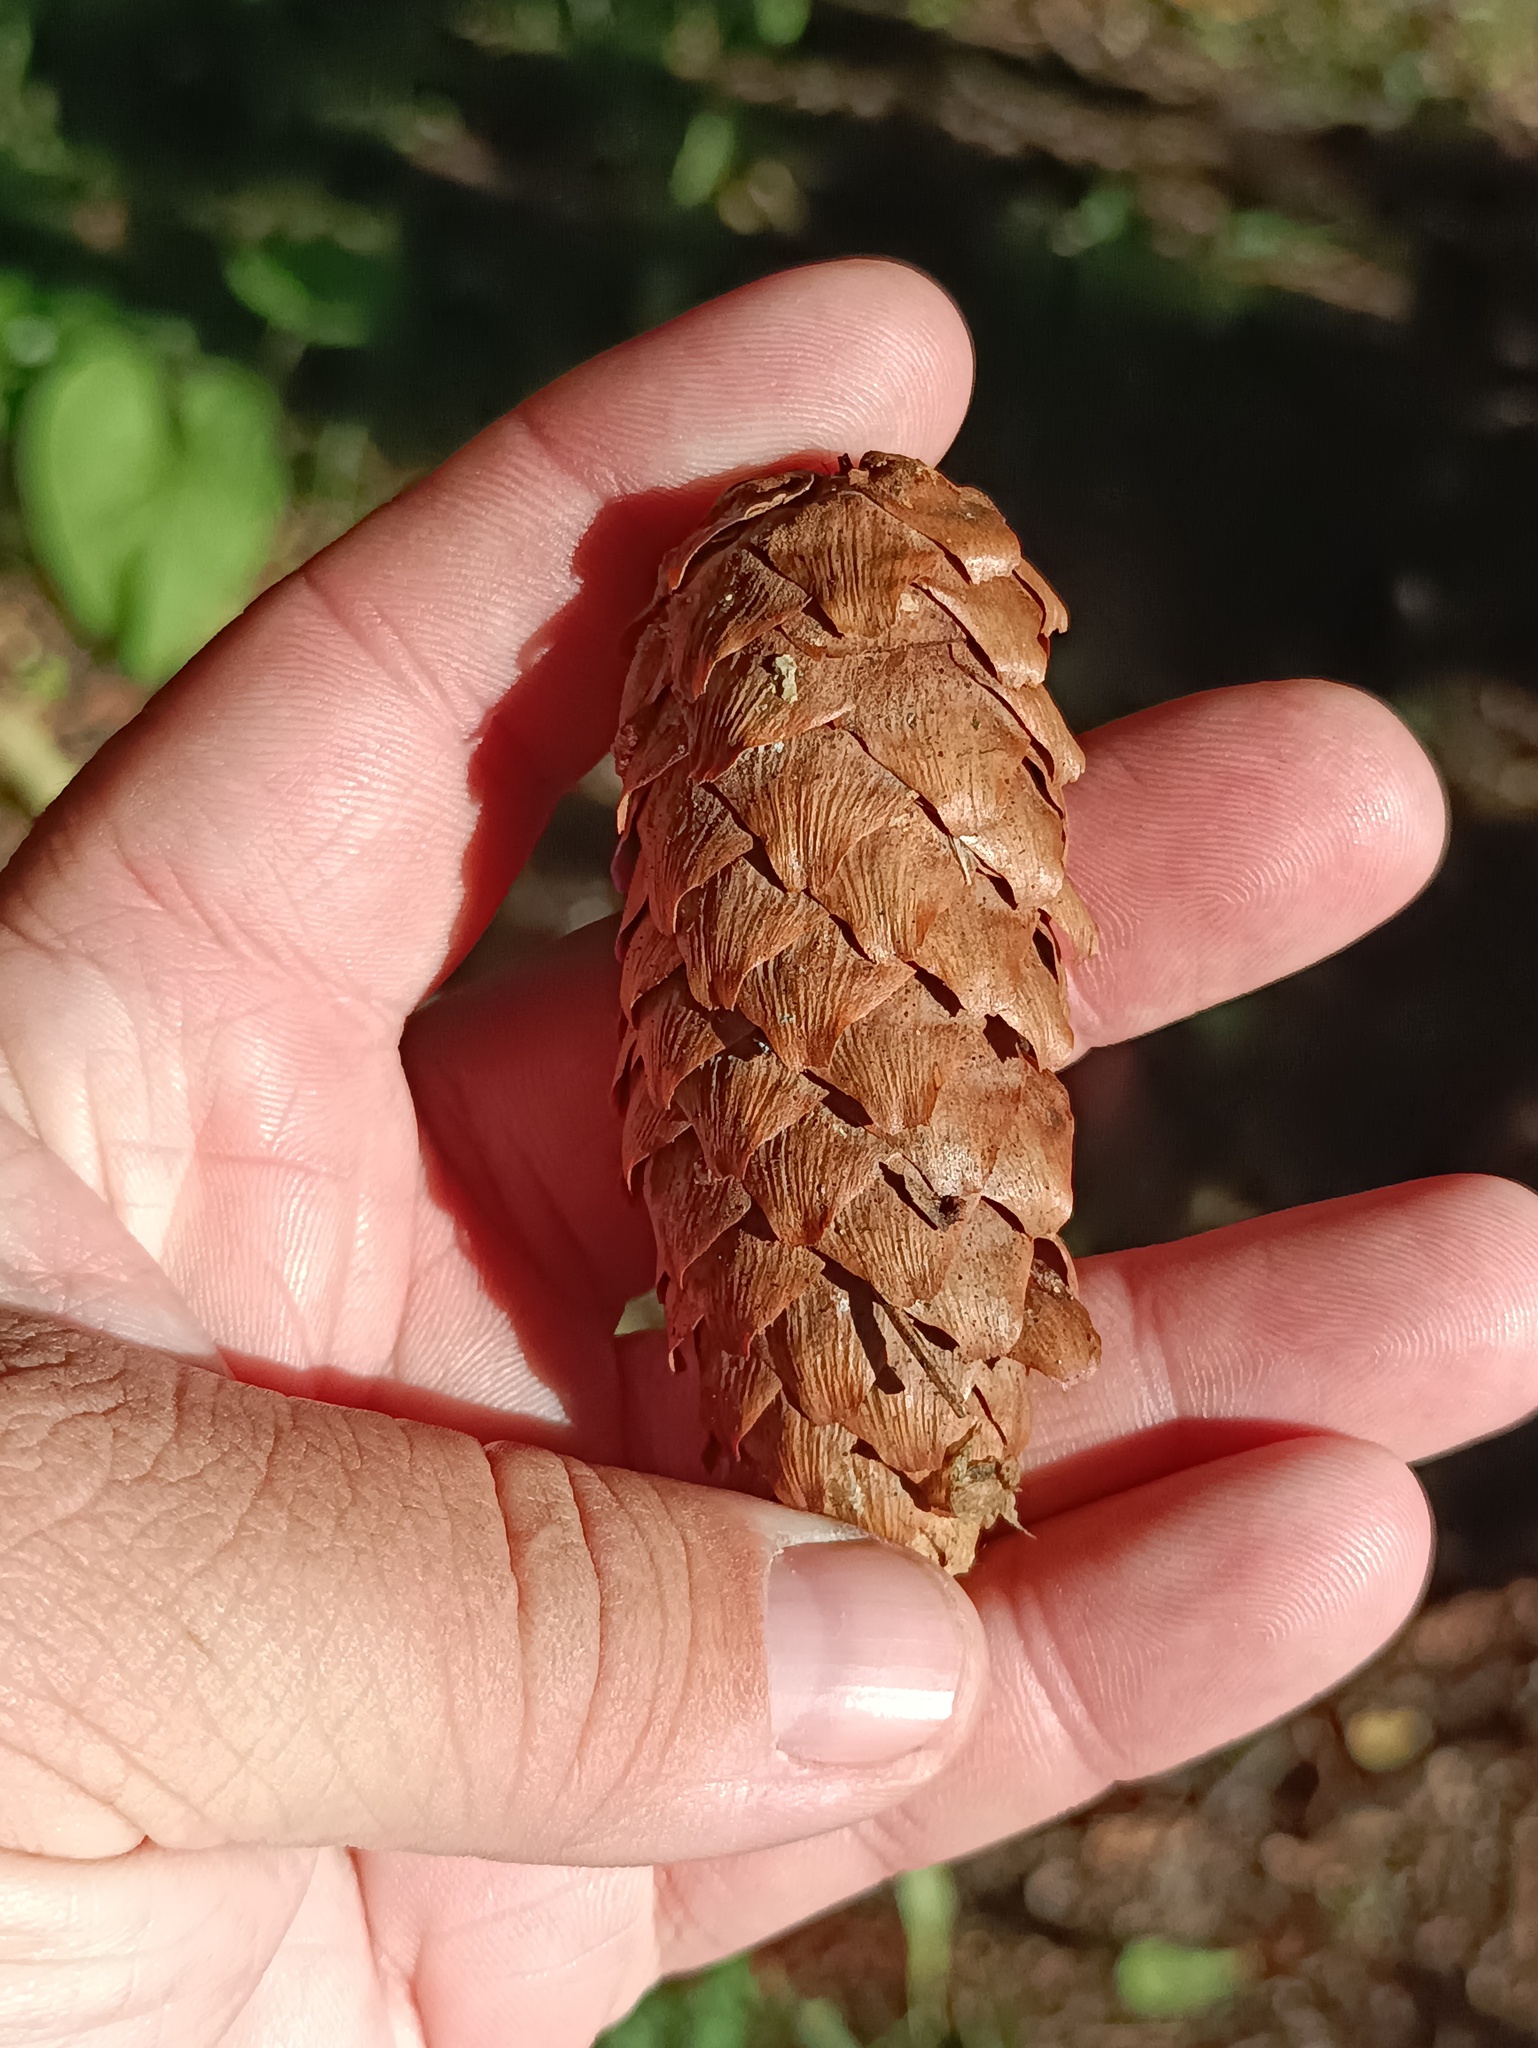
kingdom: Plantae
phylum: Tracheophyta
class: Pinopsida
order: Pinales
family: Pinaceae
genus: Picea
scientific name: Picea fennica
